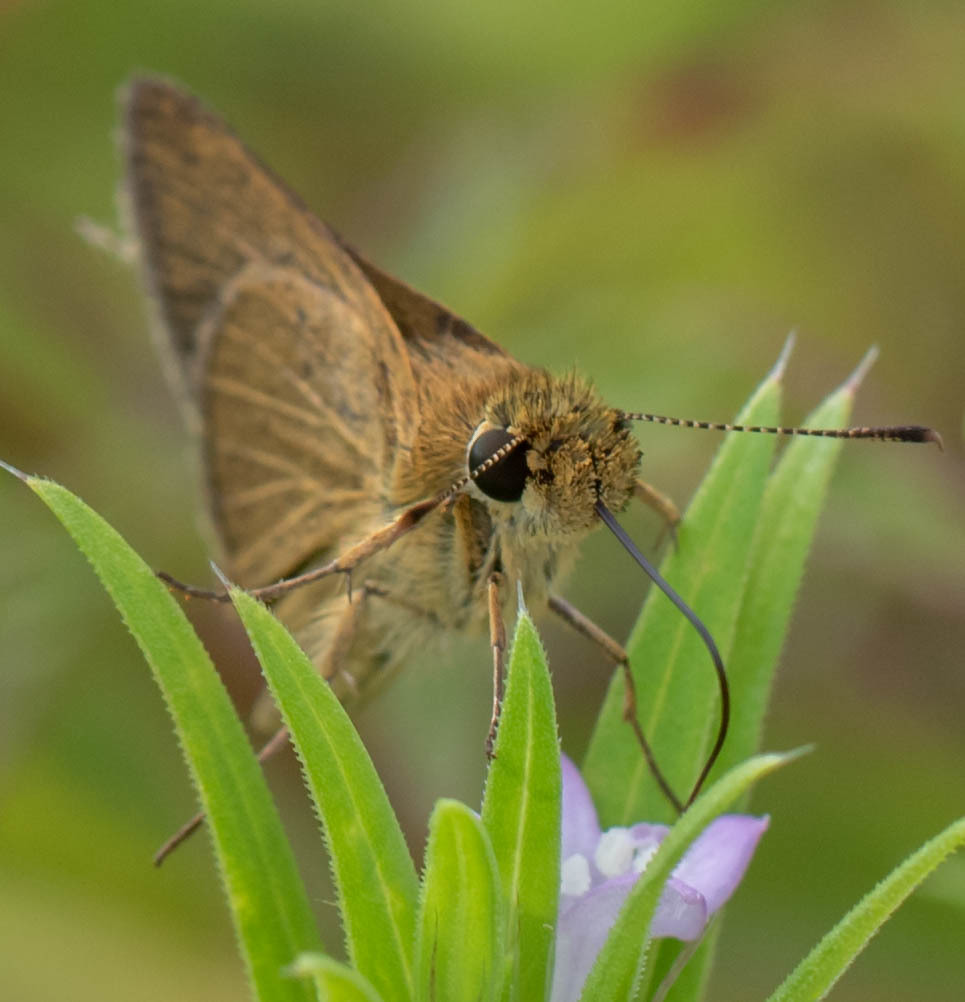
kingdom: Animalia
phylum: Arthropoda
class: Insecta
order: Lepidoptera
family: Hesperiidae
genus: Nastra
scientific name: Nastra lherminier
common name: Swarthy skipper
